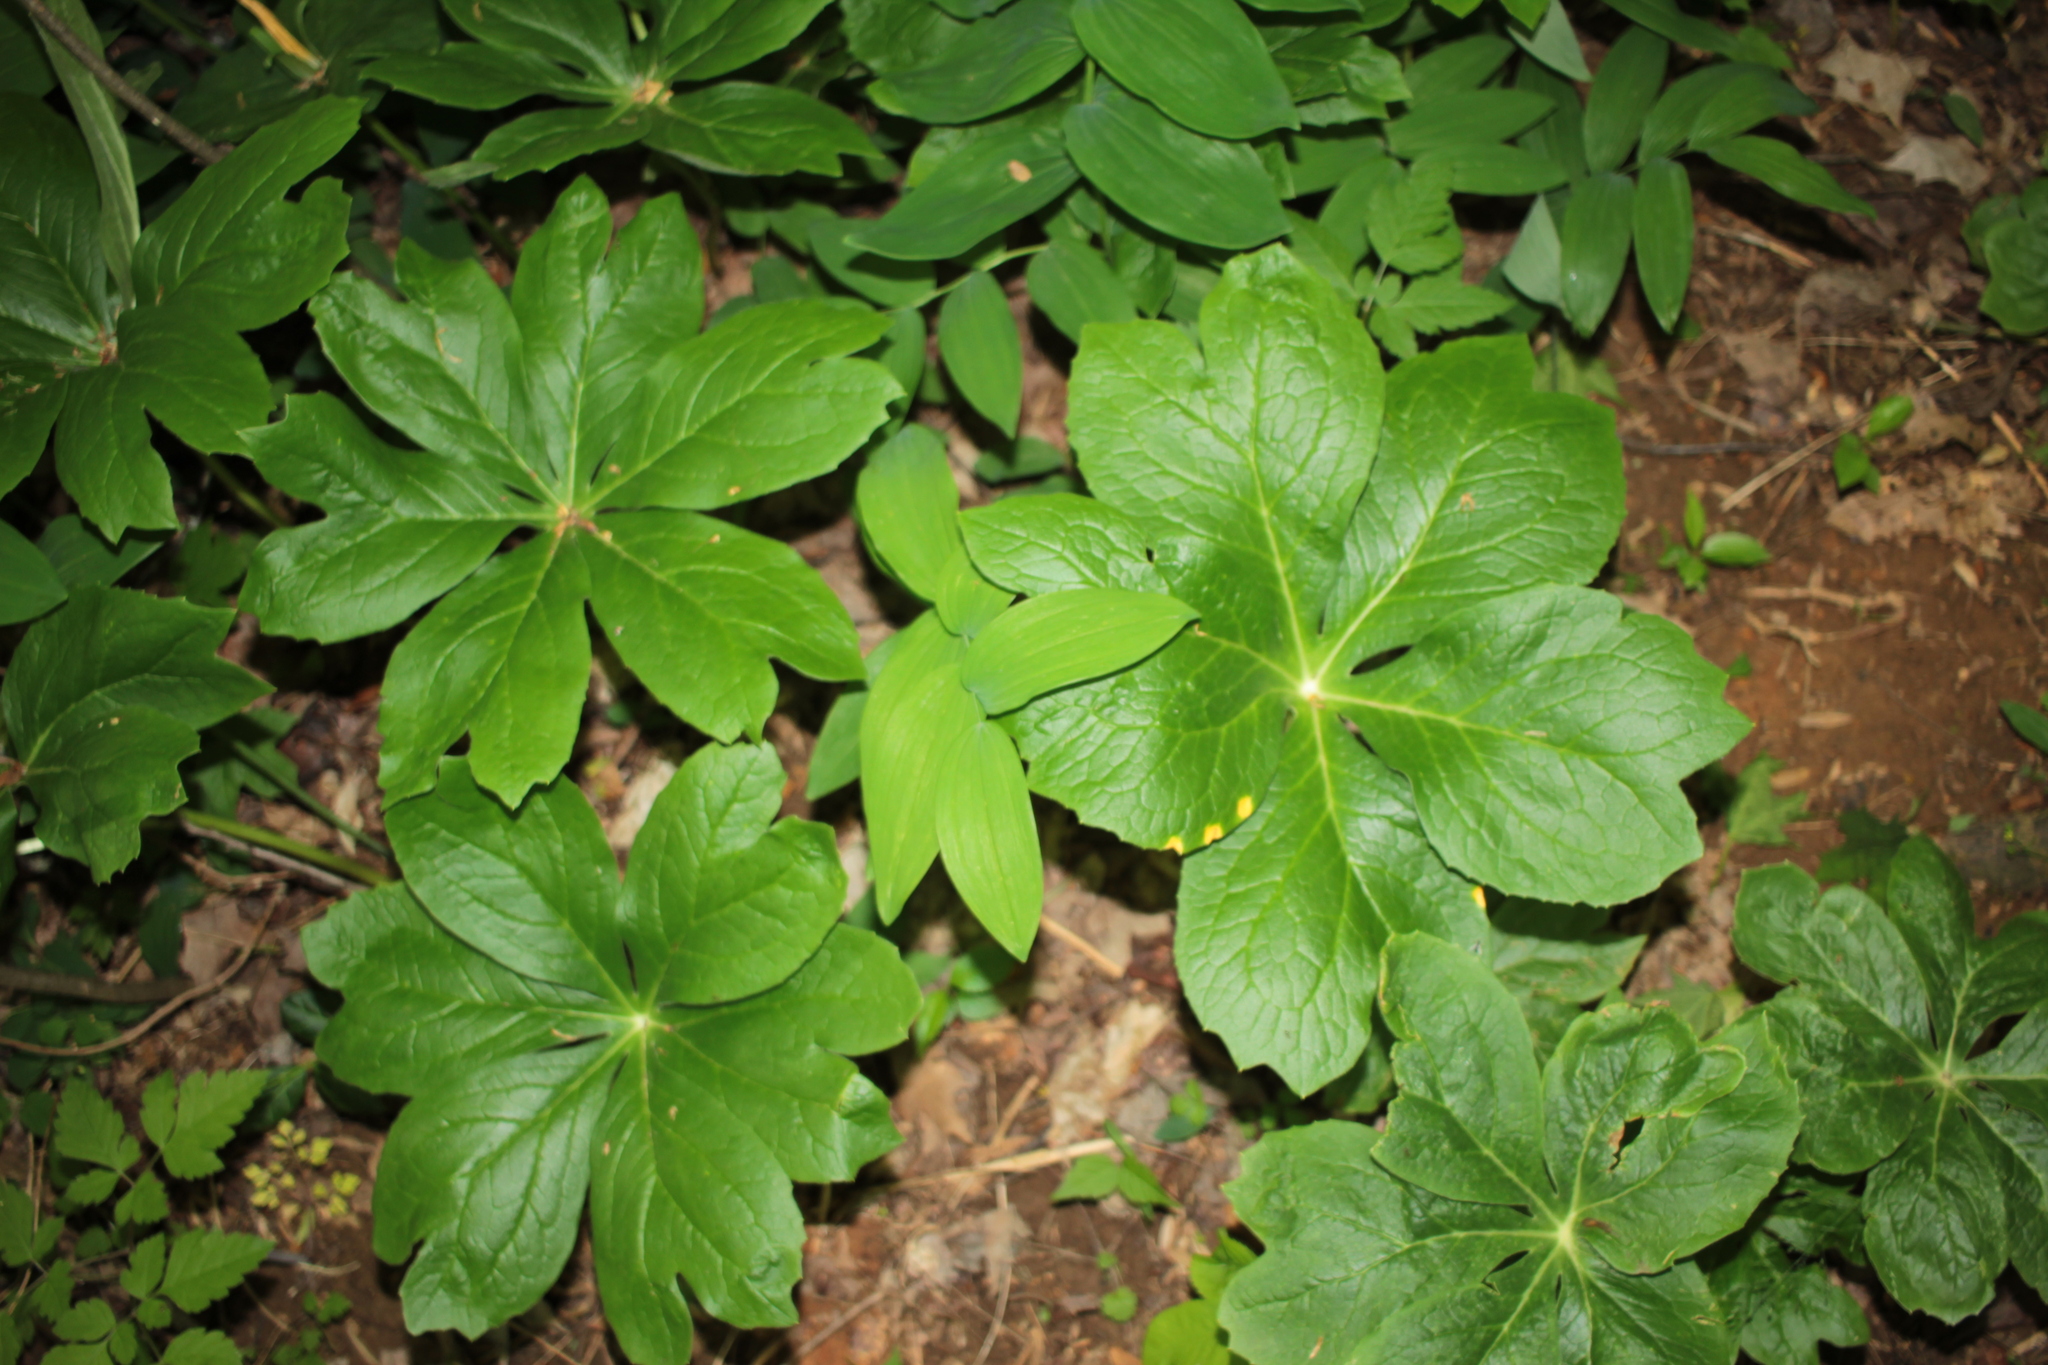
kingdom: Plantae
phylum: Tracheophyta
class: Magnoliopsida
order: Ranunculales
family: Berberidaceae
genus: Podophyllum
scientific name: Podophyllum peltatum
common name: Wild mandrake
